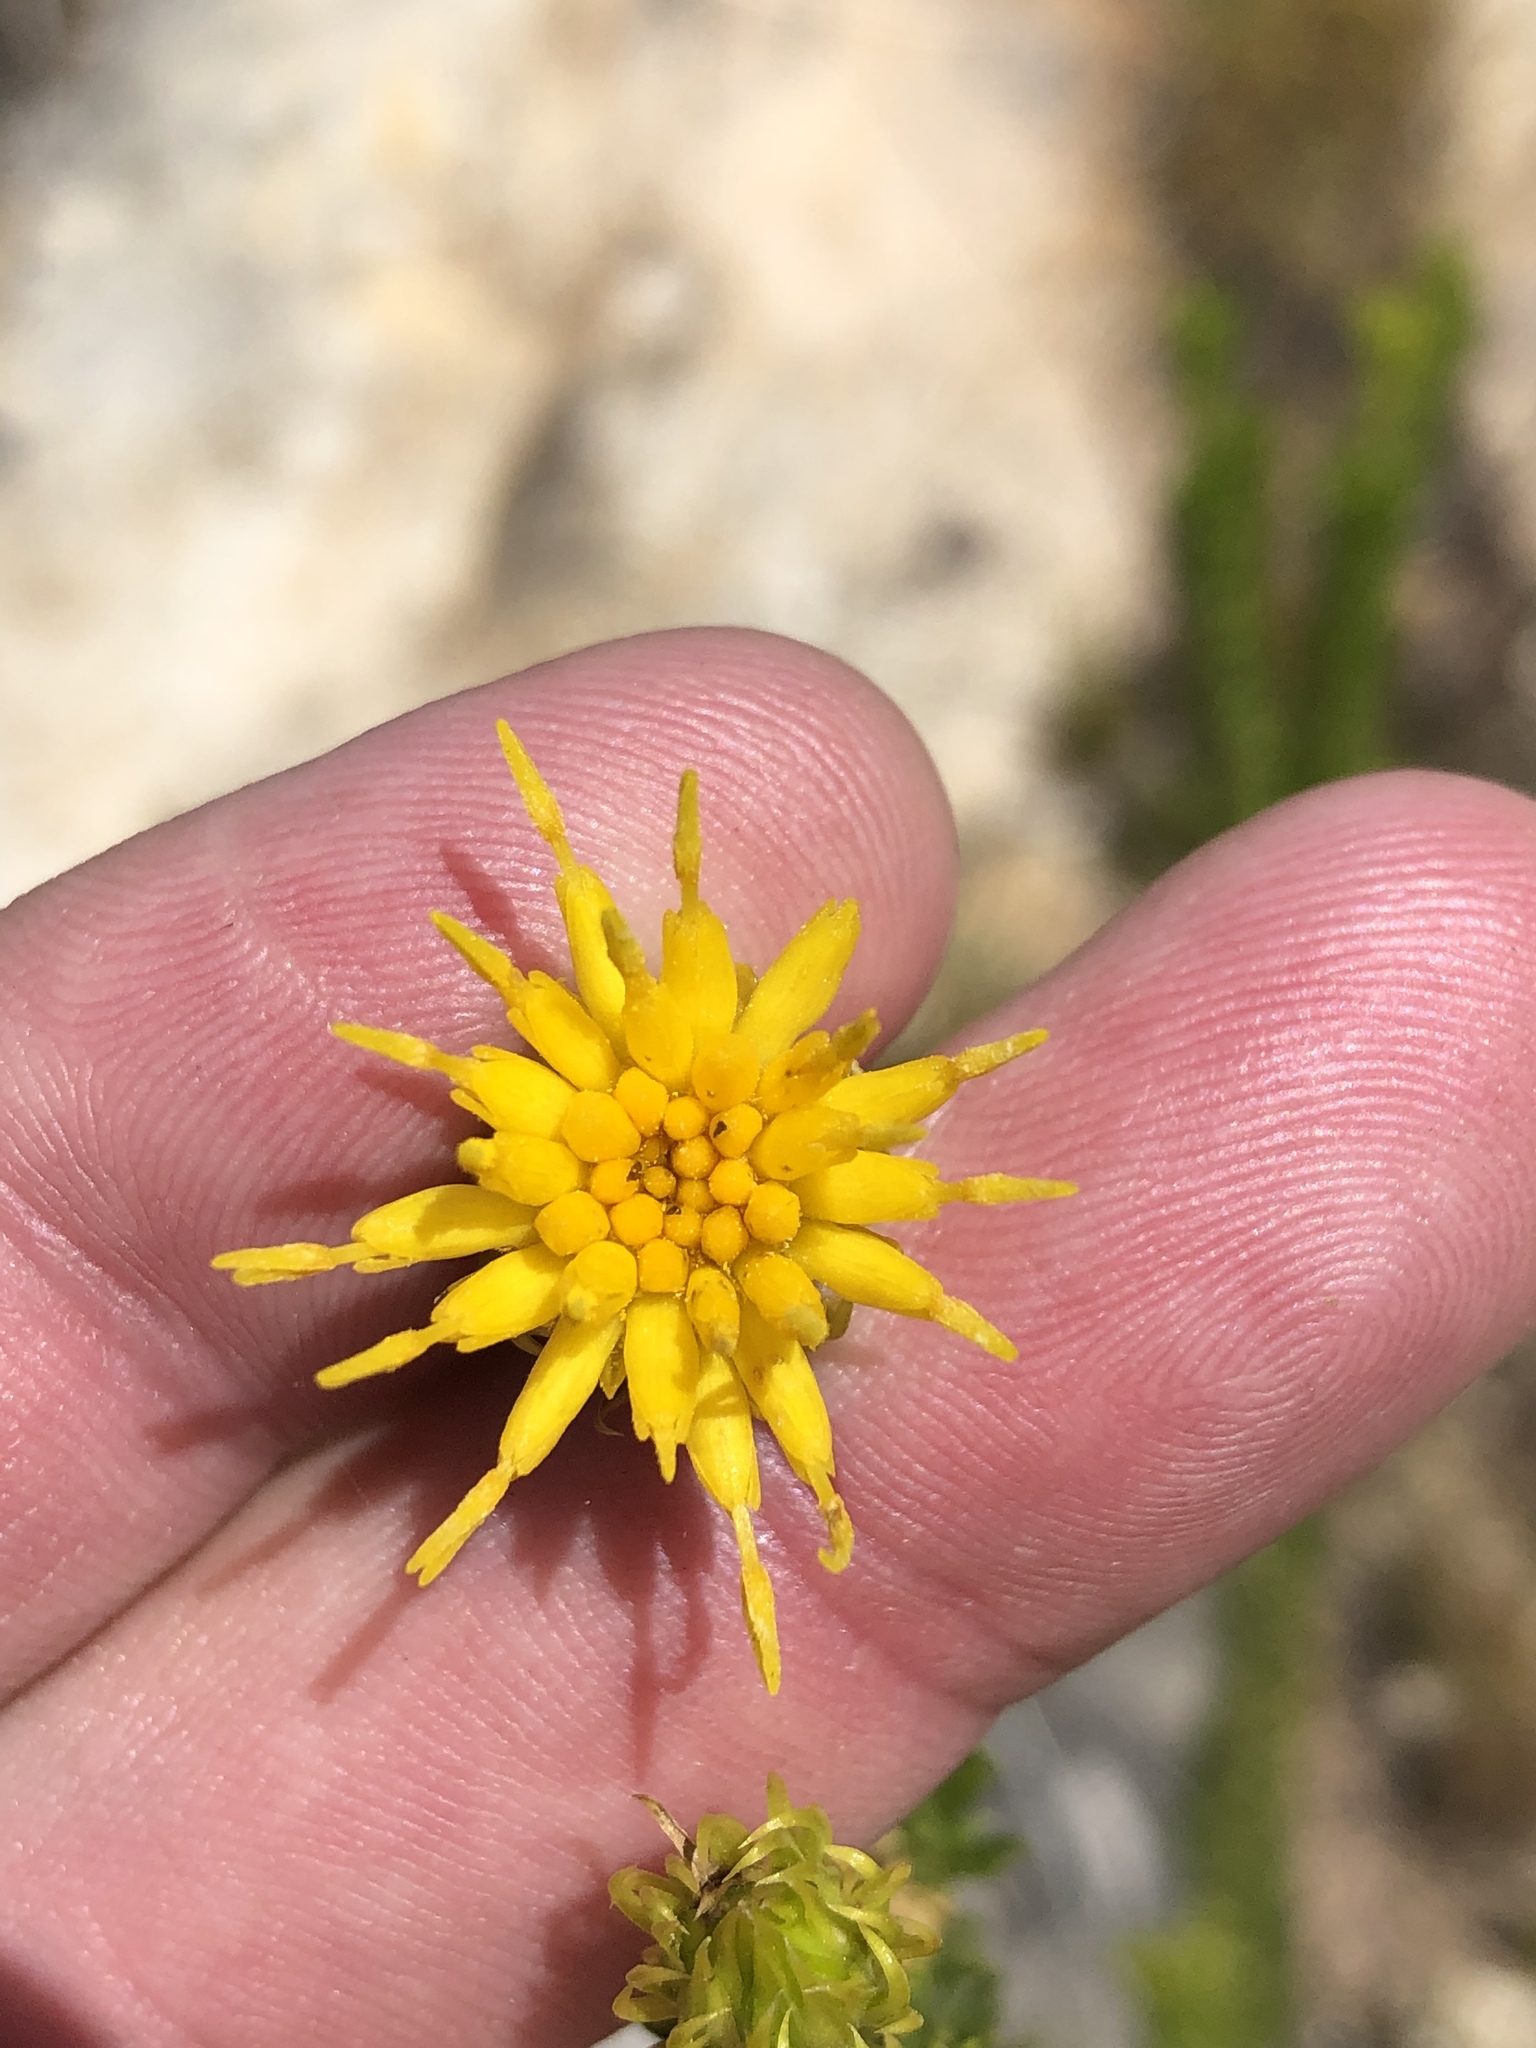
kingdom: Plantae
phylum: Tracheophyta
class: Magnoliopsida
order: Asterales
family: Asteraceae
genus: Pteronia
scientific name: Pteronia camphorata
